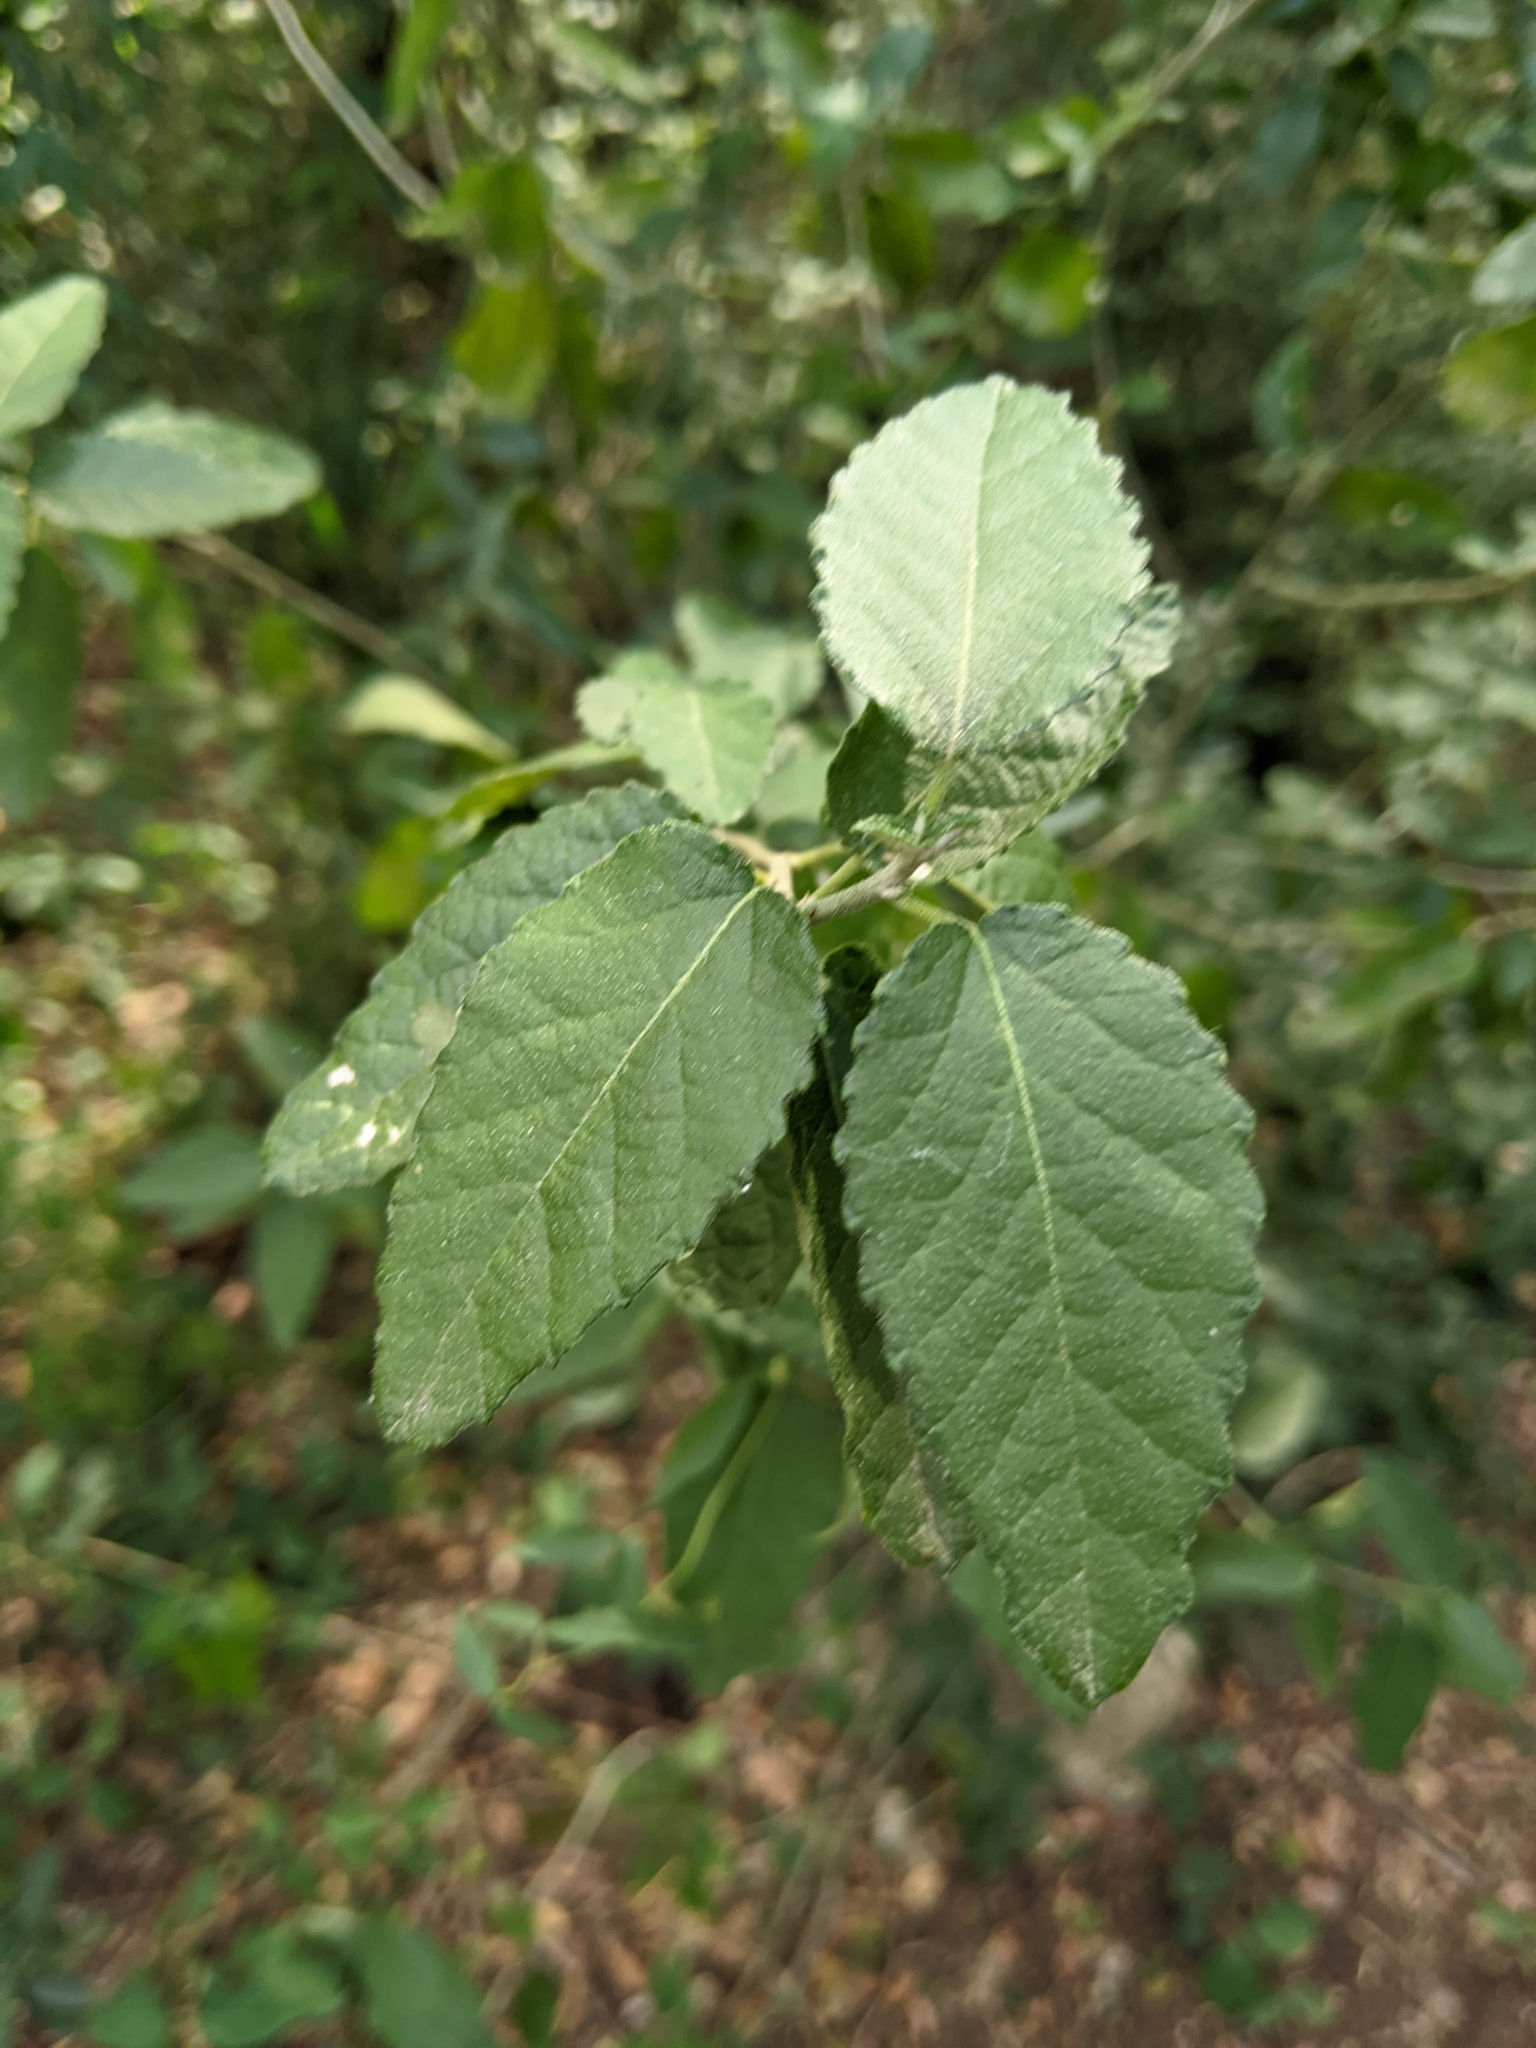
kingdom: Plantae
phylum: Tracheophyta
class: Magnoliopsida
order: Malpighiales
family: Euphorbiaceae
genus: Bernardia
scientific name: Bernardia myricifolia
